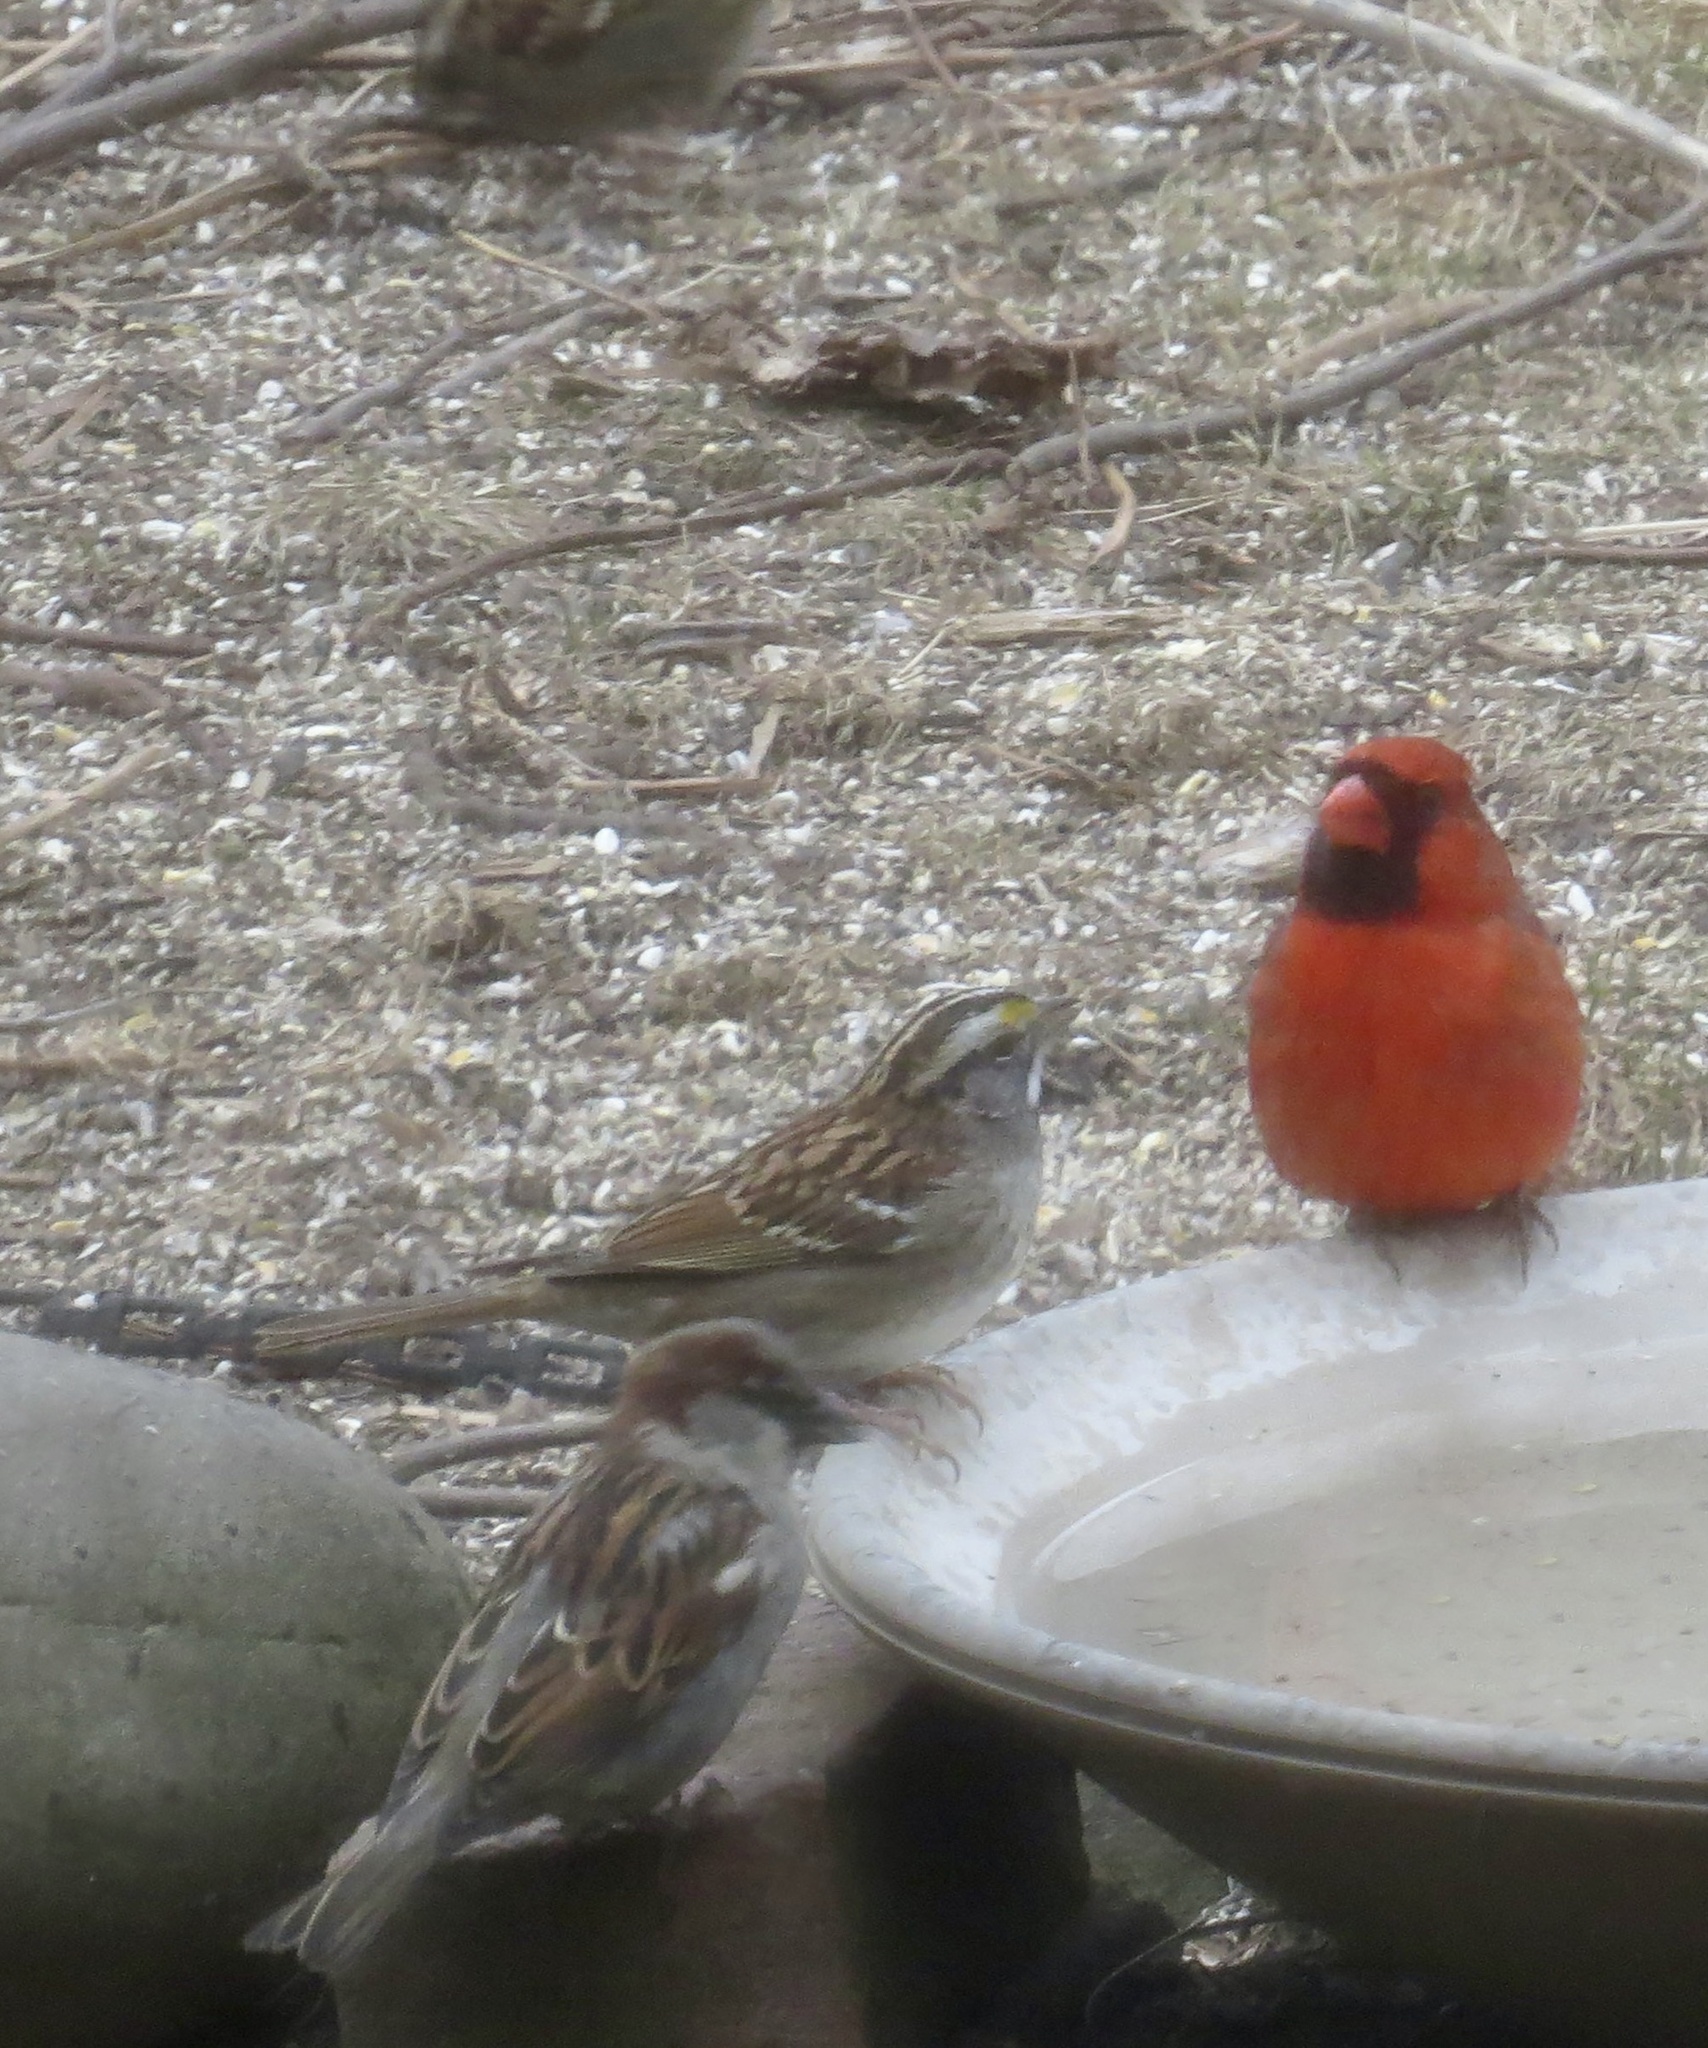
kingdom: Animalia
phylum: Chordata
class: Aves
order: Passeriformes
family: Passeridae
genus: Passer
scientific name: Passer domesticus
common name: House sparrow
